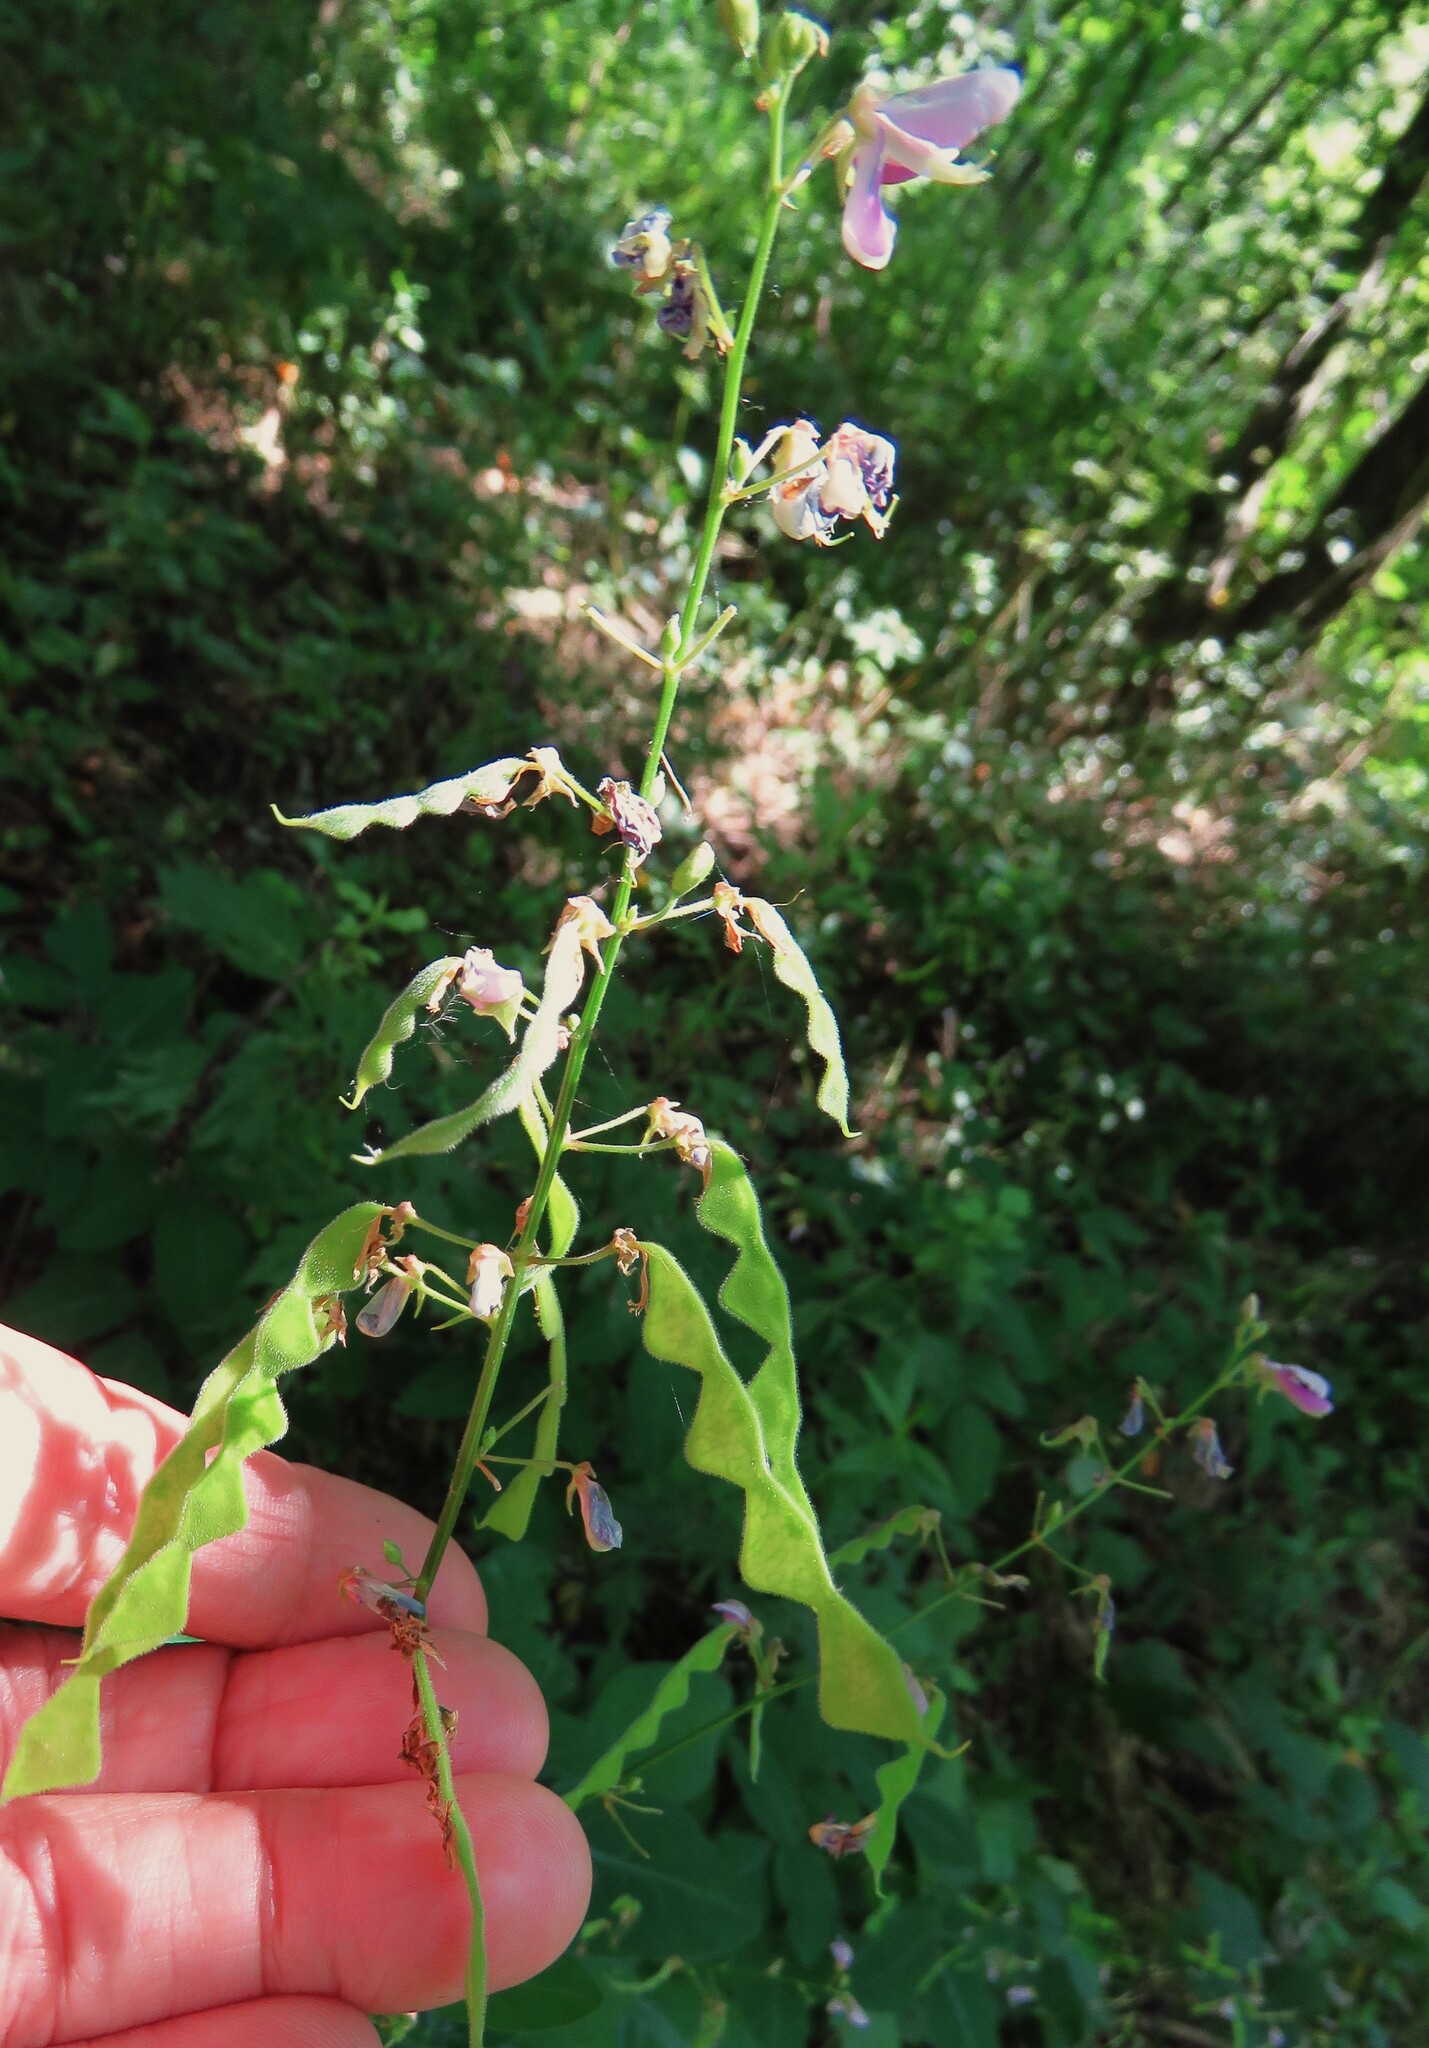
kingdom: Plantae
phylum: Tracheophyta
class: Magnoliopsida
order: Rosales
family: Urticaceae
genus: Urtica
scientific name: Urtica dioica
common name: Common nettle
